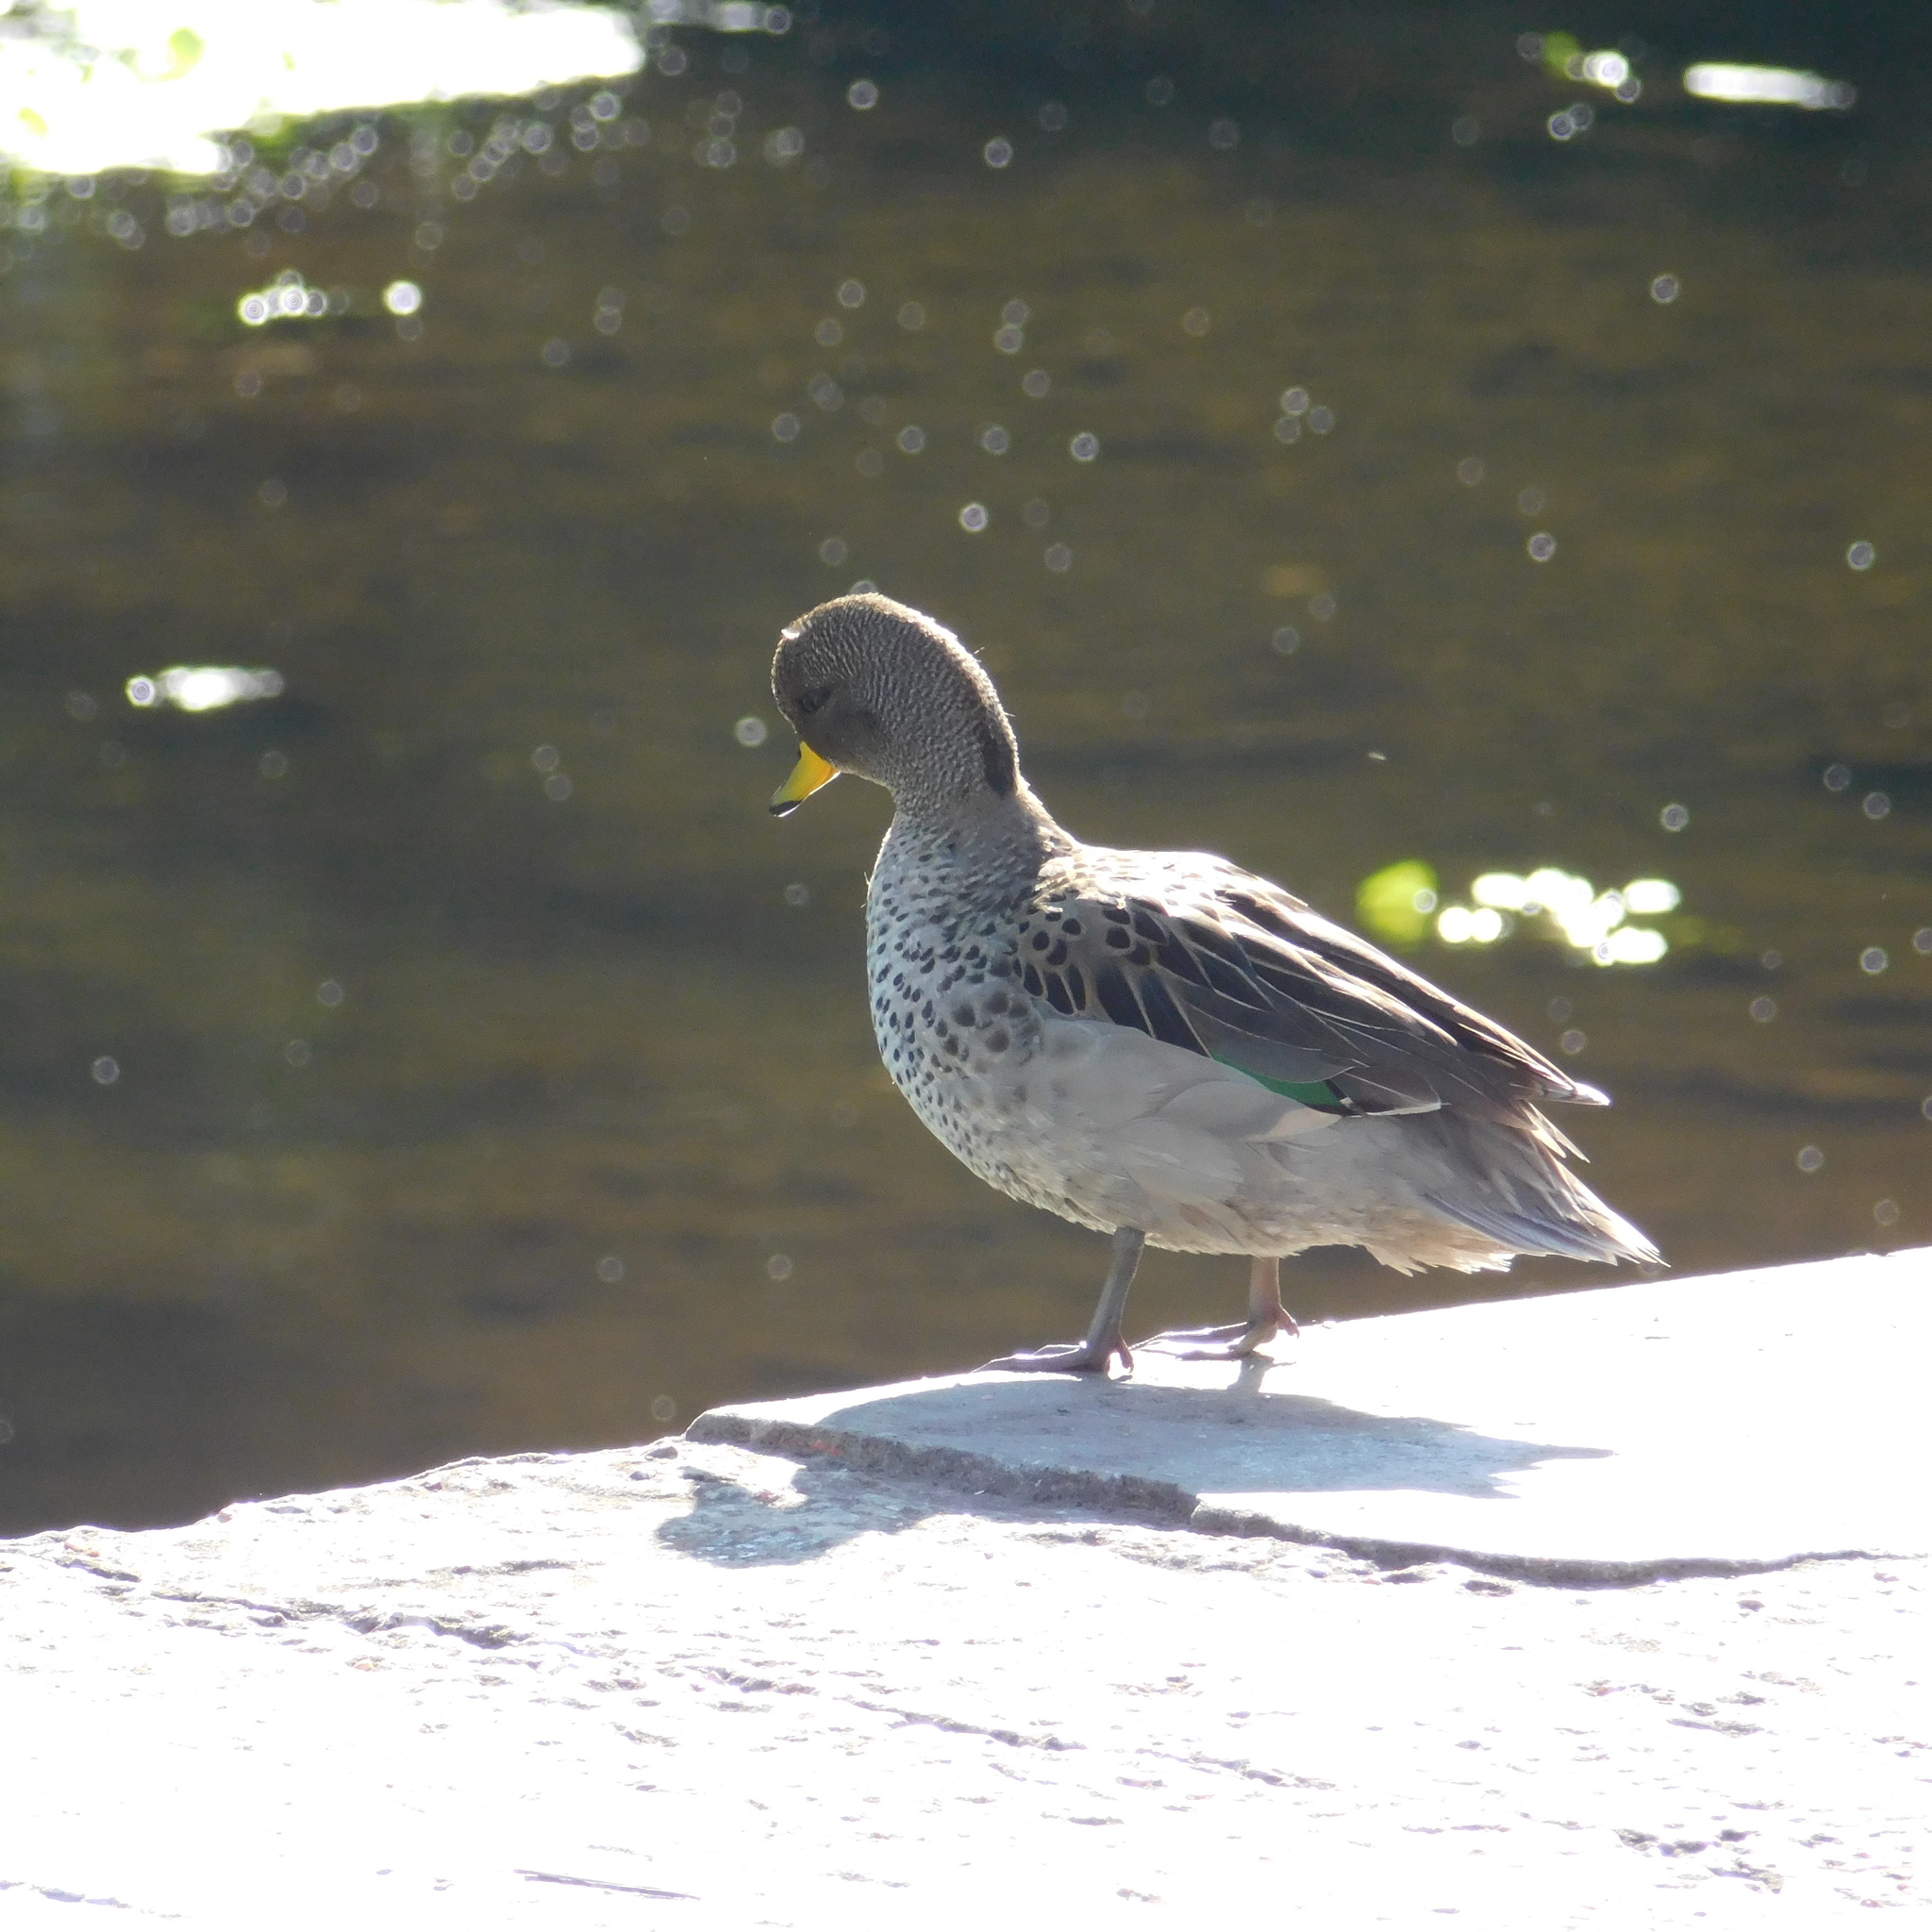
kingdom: Animalia
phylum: Chordata
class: Aves
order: Anseriformes
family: Anatidae
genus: Anas
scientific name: Anas flavirostris
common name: Yellow-billed teal
